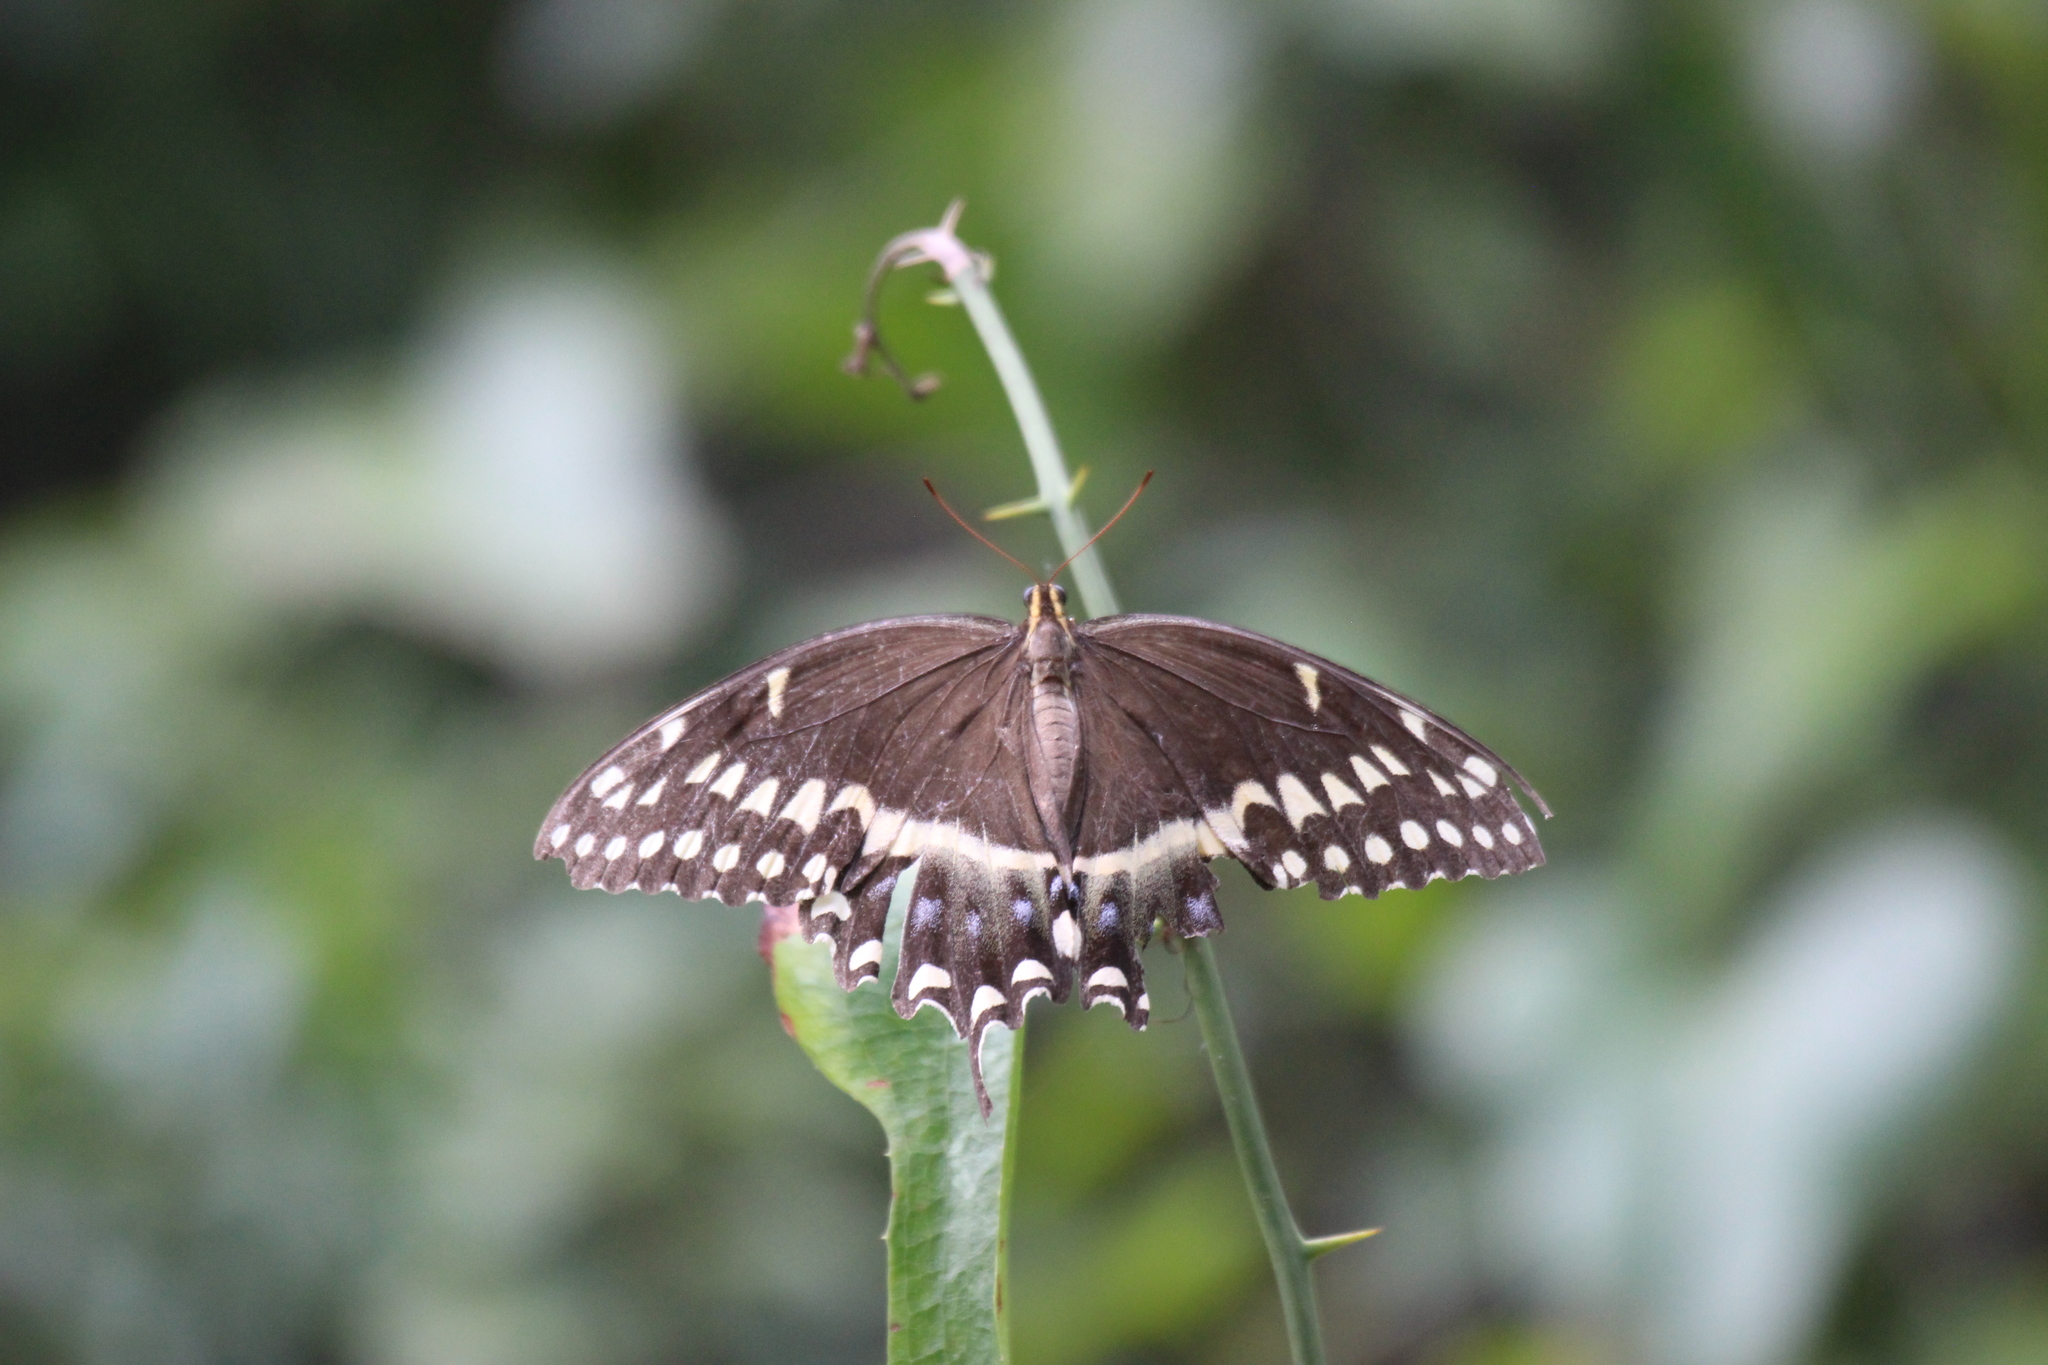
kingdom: Animalia
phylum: Arthropoda
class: Insecta
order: Lepidoptera
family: Papilionidae
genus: Papilio
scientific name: Papilio palamedes
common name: Palamedes swallowtail
